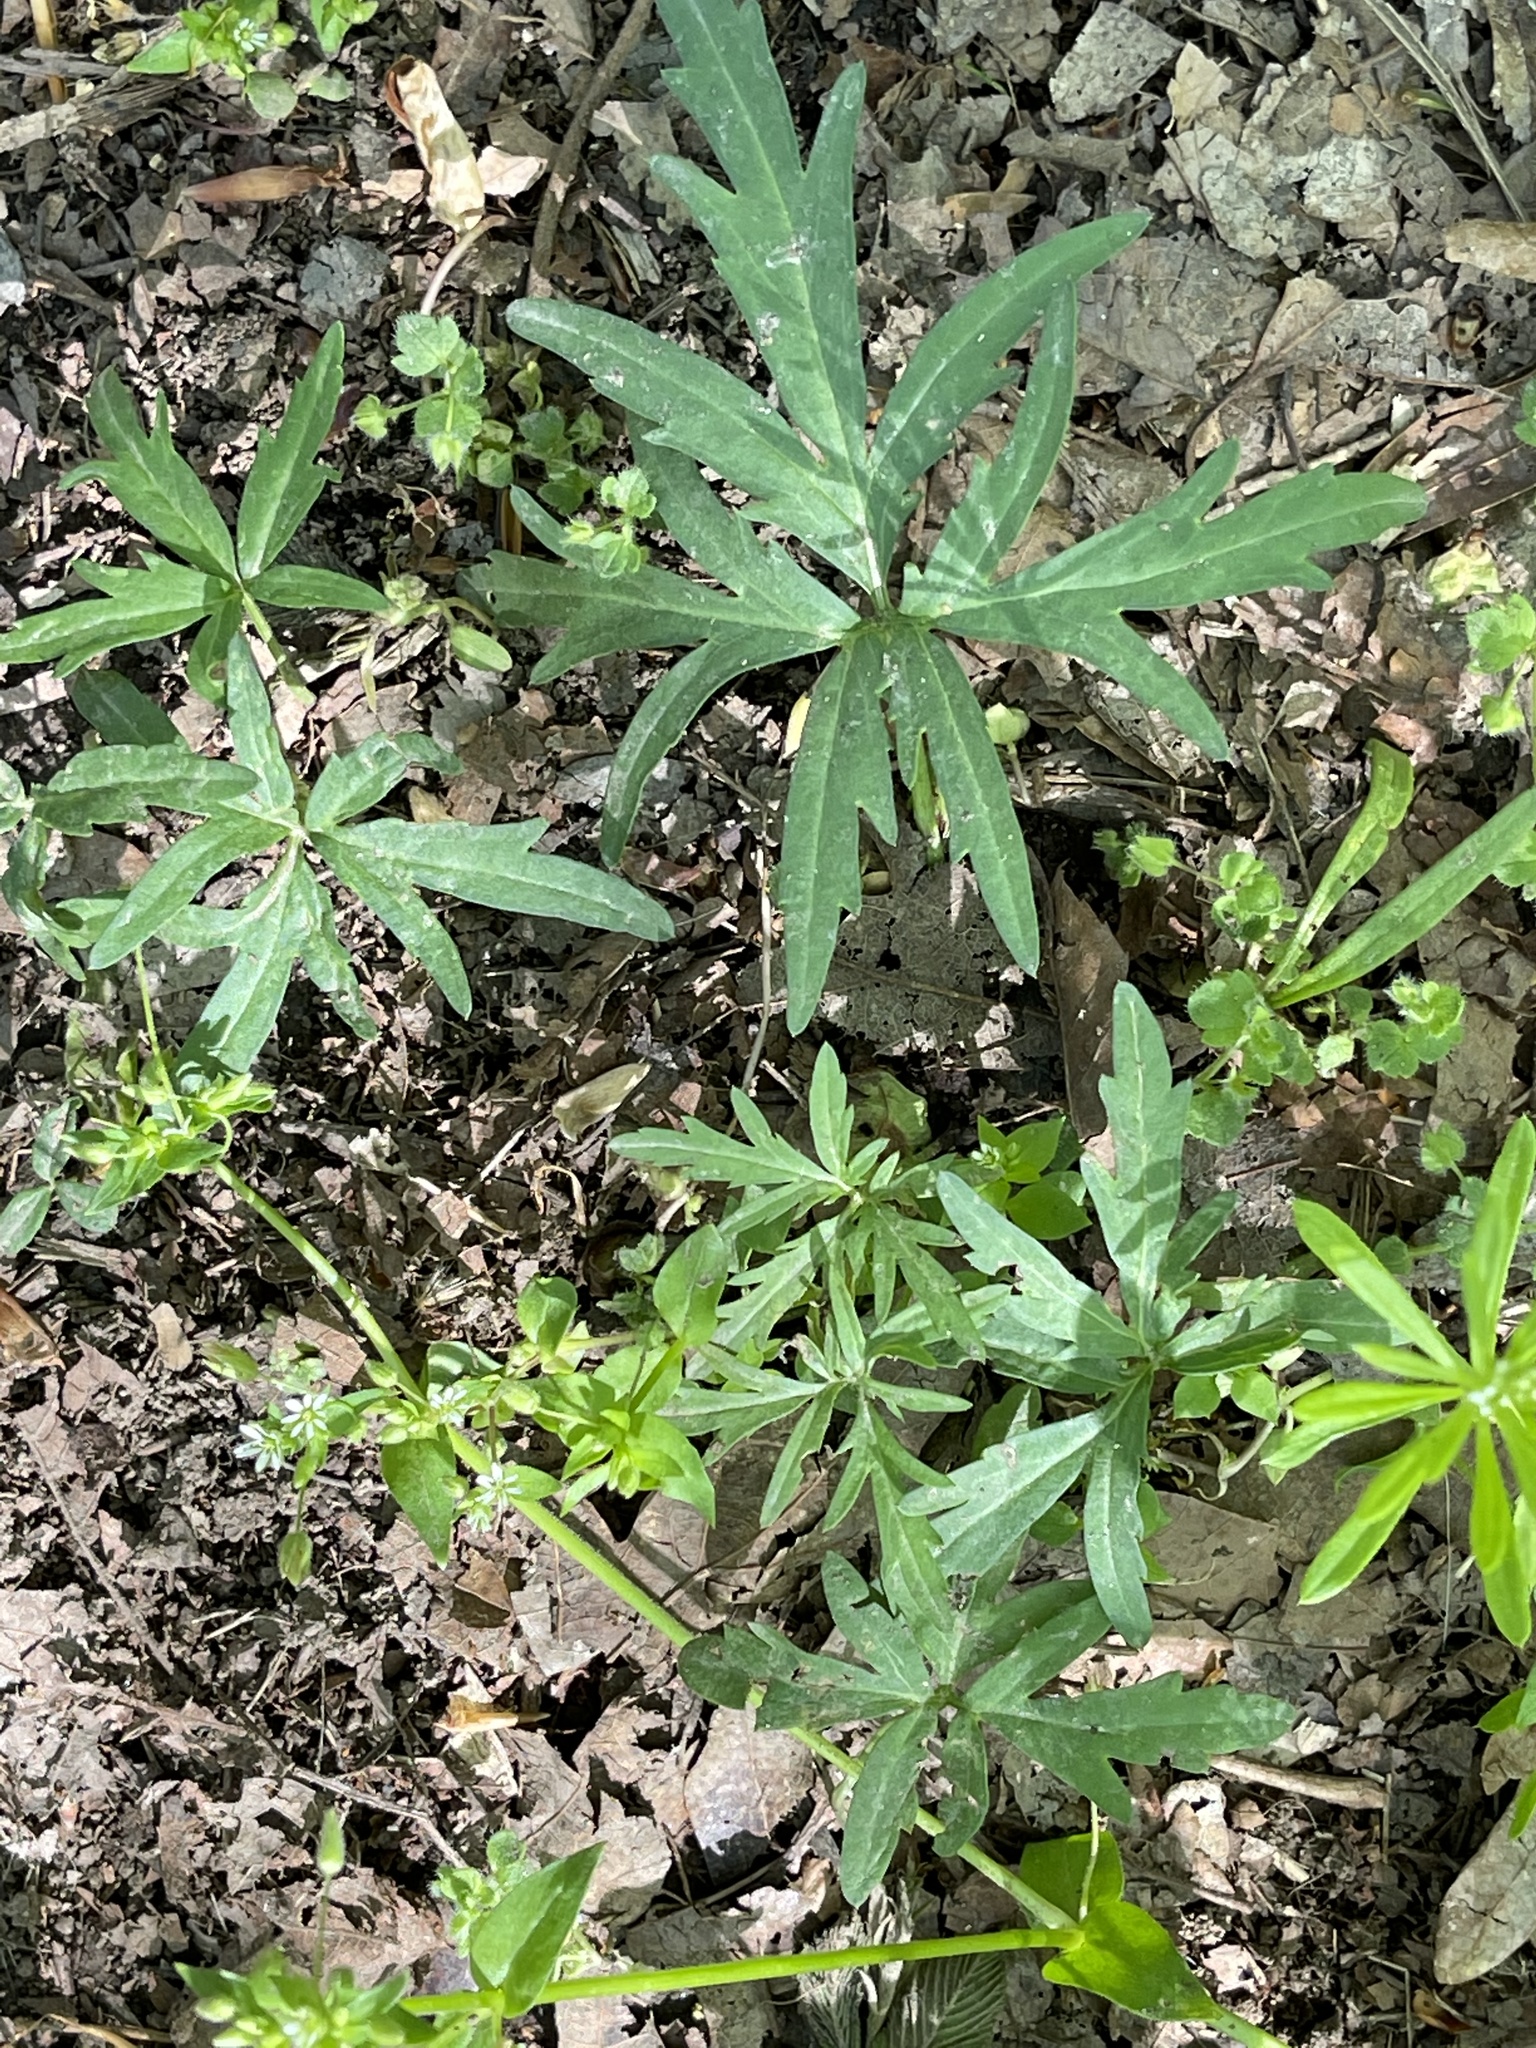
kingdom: Plantae
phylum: Tracheophyta
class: Magnoliopsida
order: Brassicales
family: Brassicaceae
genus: Cardamine
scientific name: Cardamine concatenata
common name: Cut-leaf toothcup
